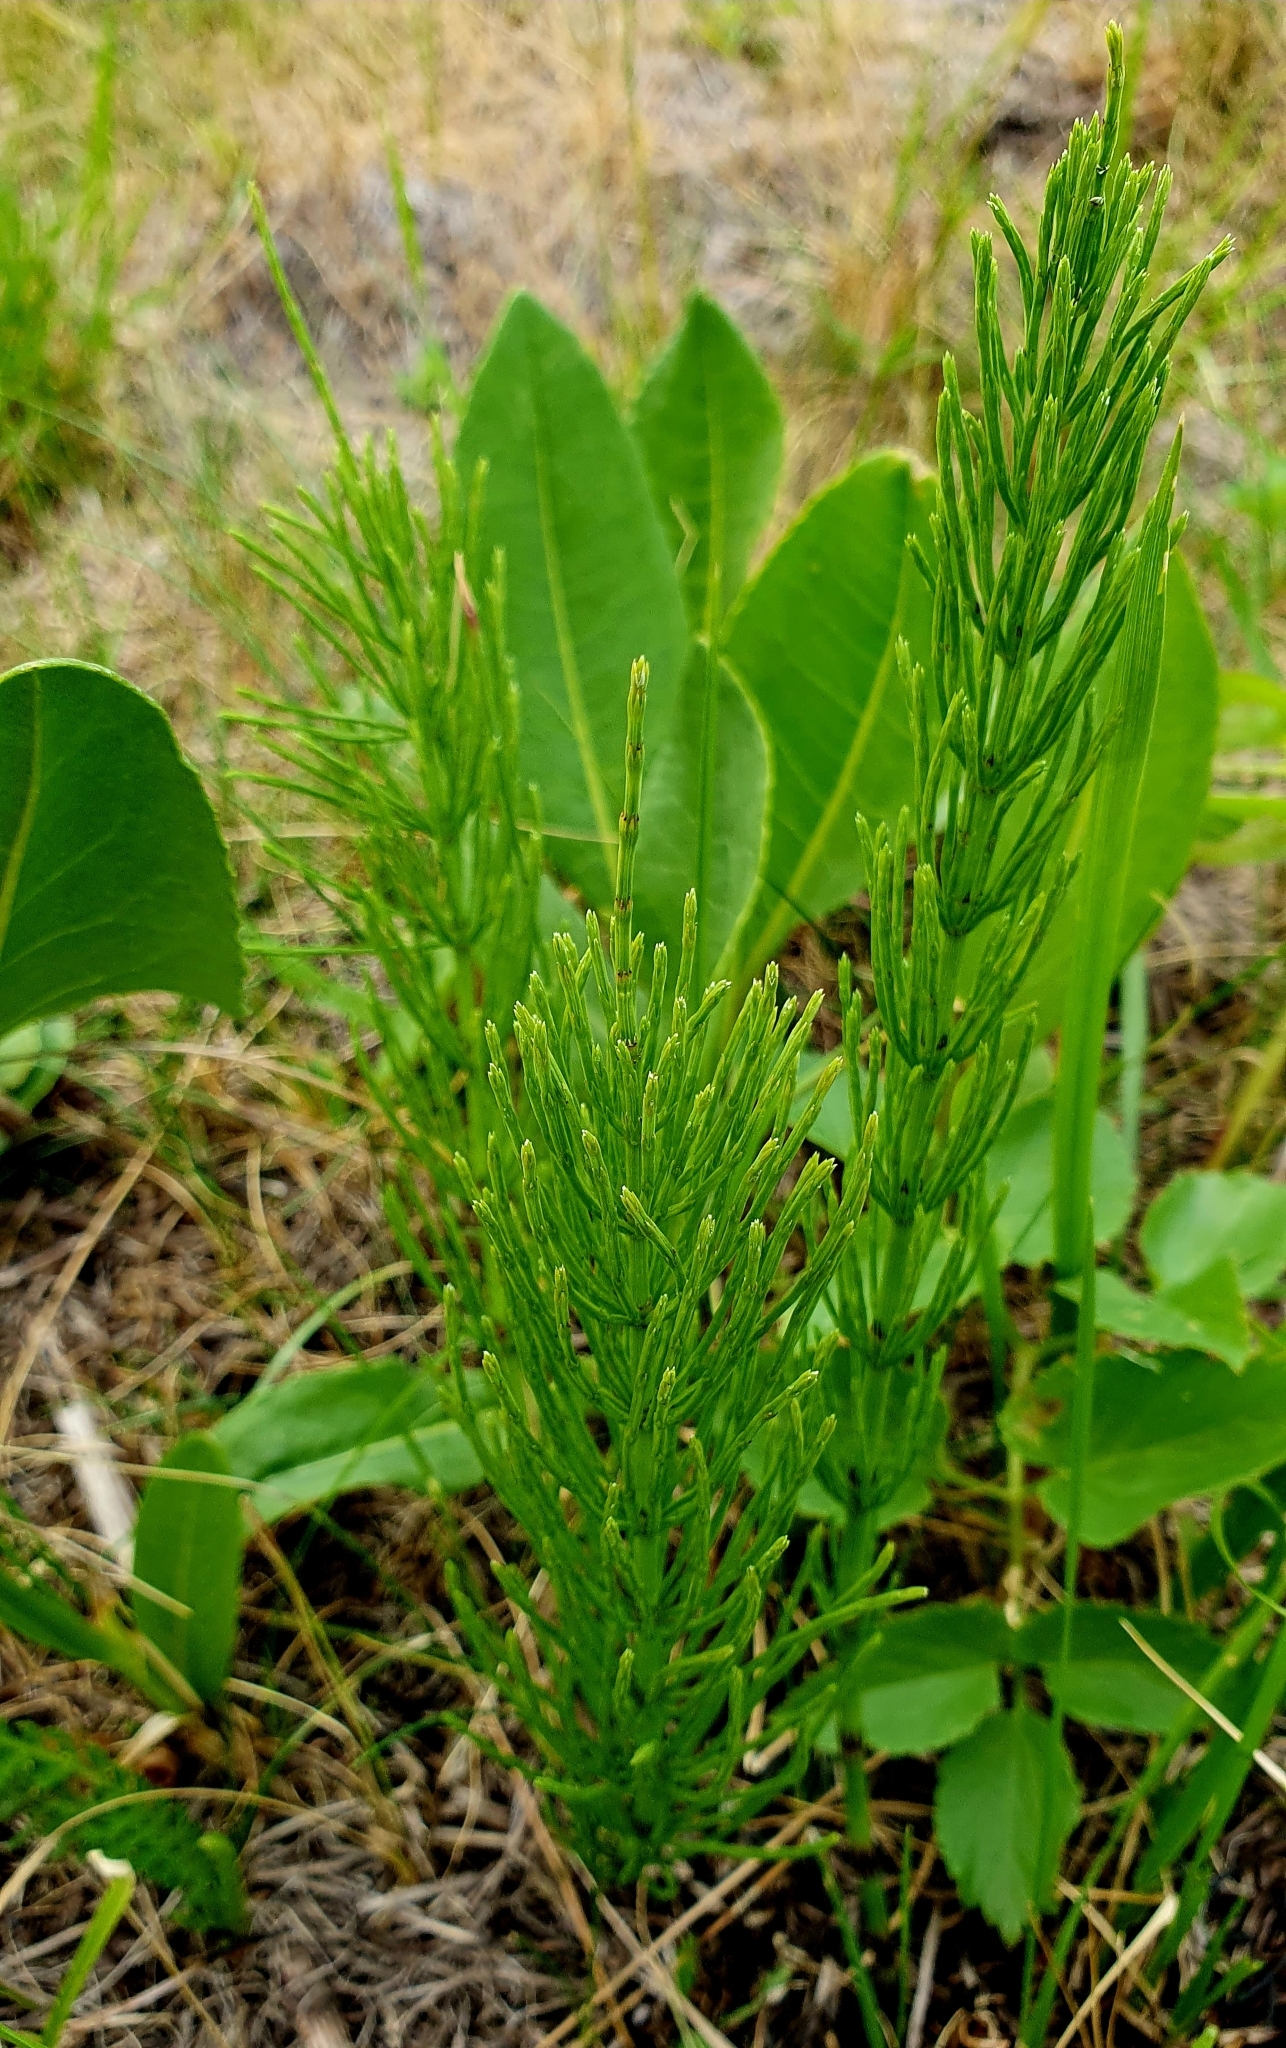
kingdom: Plantae
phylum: Tracheophyta
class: Polypodiopsida
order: Equisetales
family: Equisetaceae
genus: Equisetum
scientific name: Equisetum arvense
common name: Field horsetail
